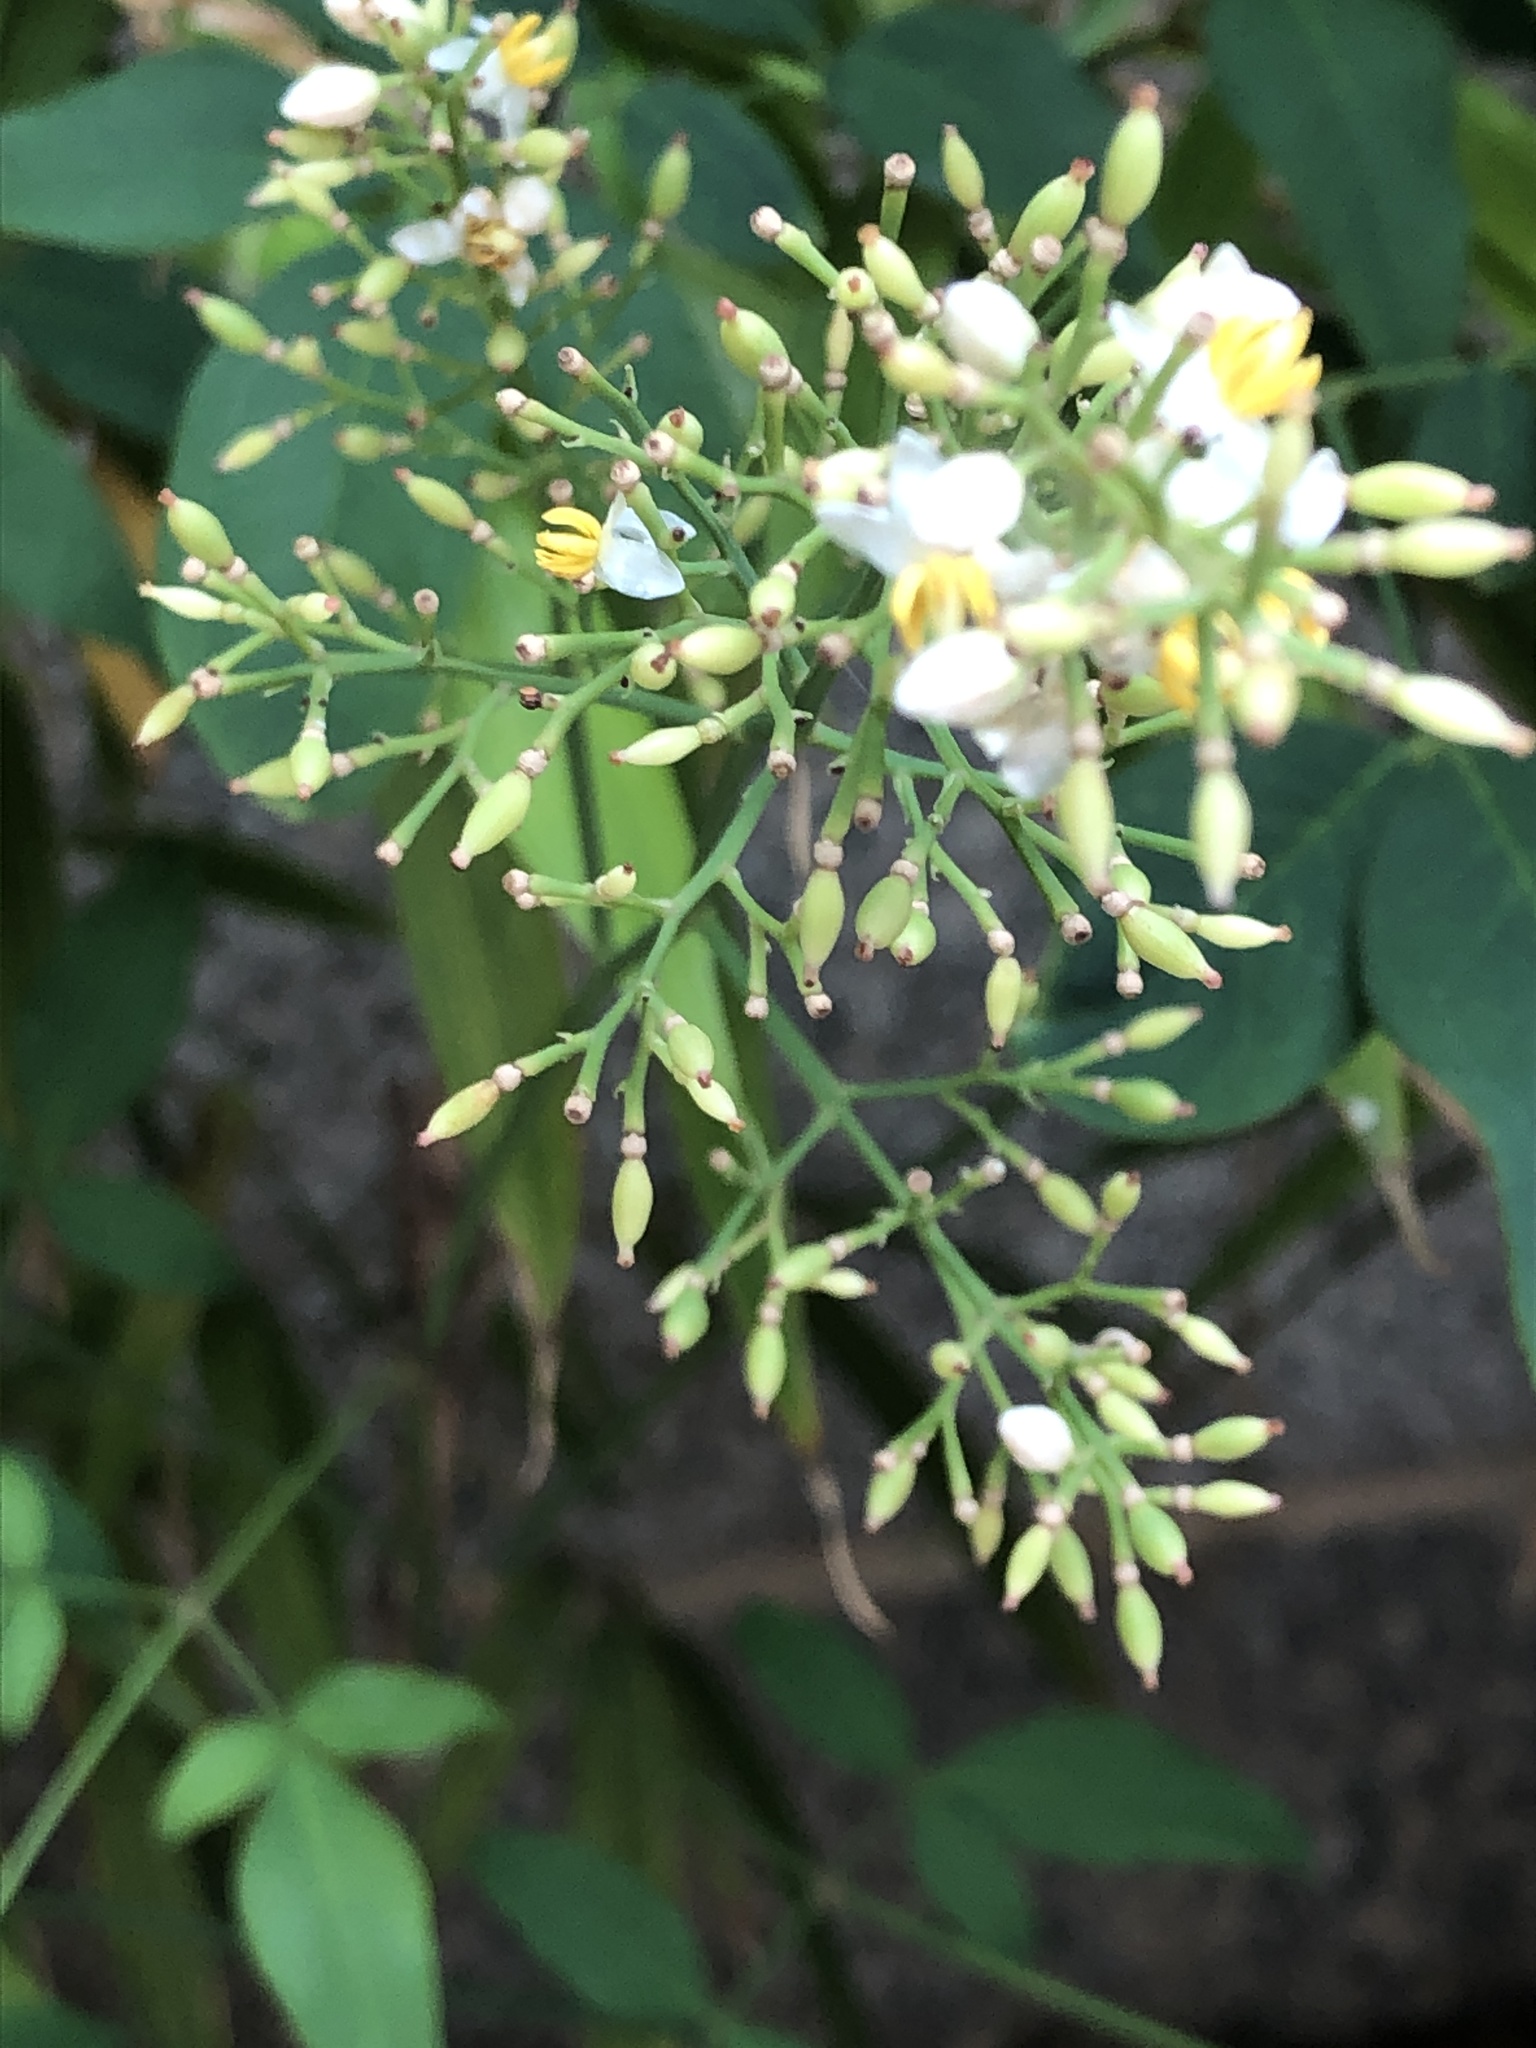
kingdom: Plantae
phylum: Tracheophyta
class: Magnoliopsida
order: Ranunculales
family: Berberidaceae
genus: Nandina
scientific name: Nandina domestica
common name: Sacred bamboo
